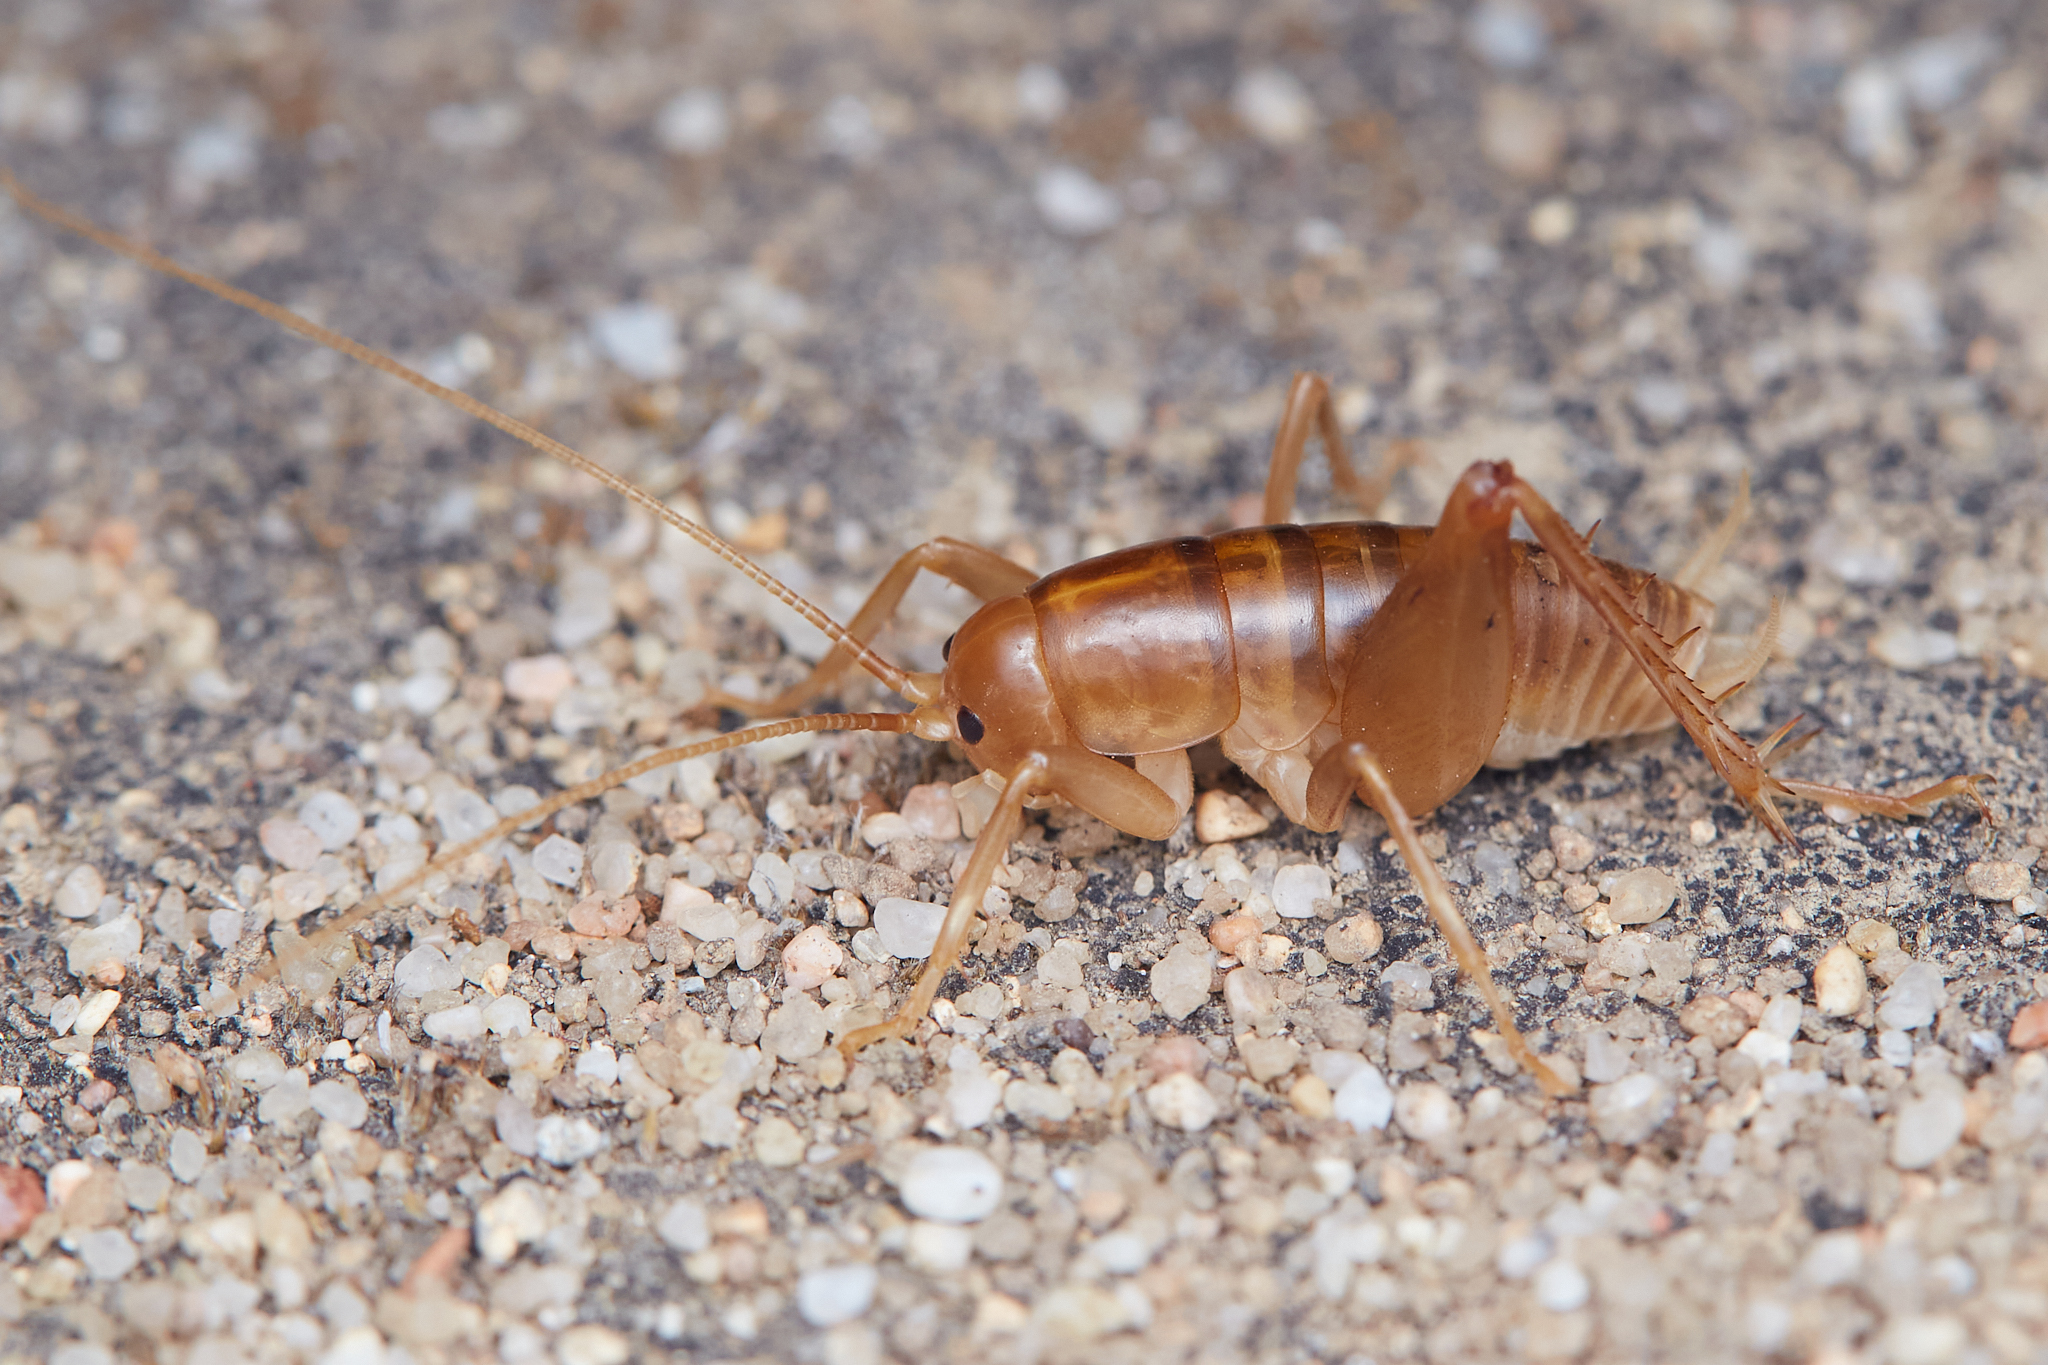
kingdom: Animalia
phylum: Arthropoda
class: Insecta
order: Orthoptera
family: Rhaphidophoridae
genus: Ceuthophilus
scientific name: Ceuthophilus californianus
